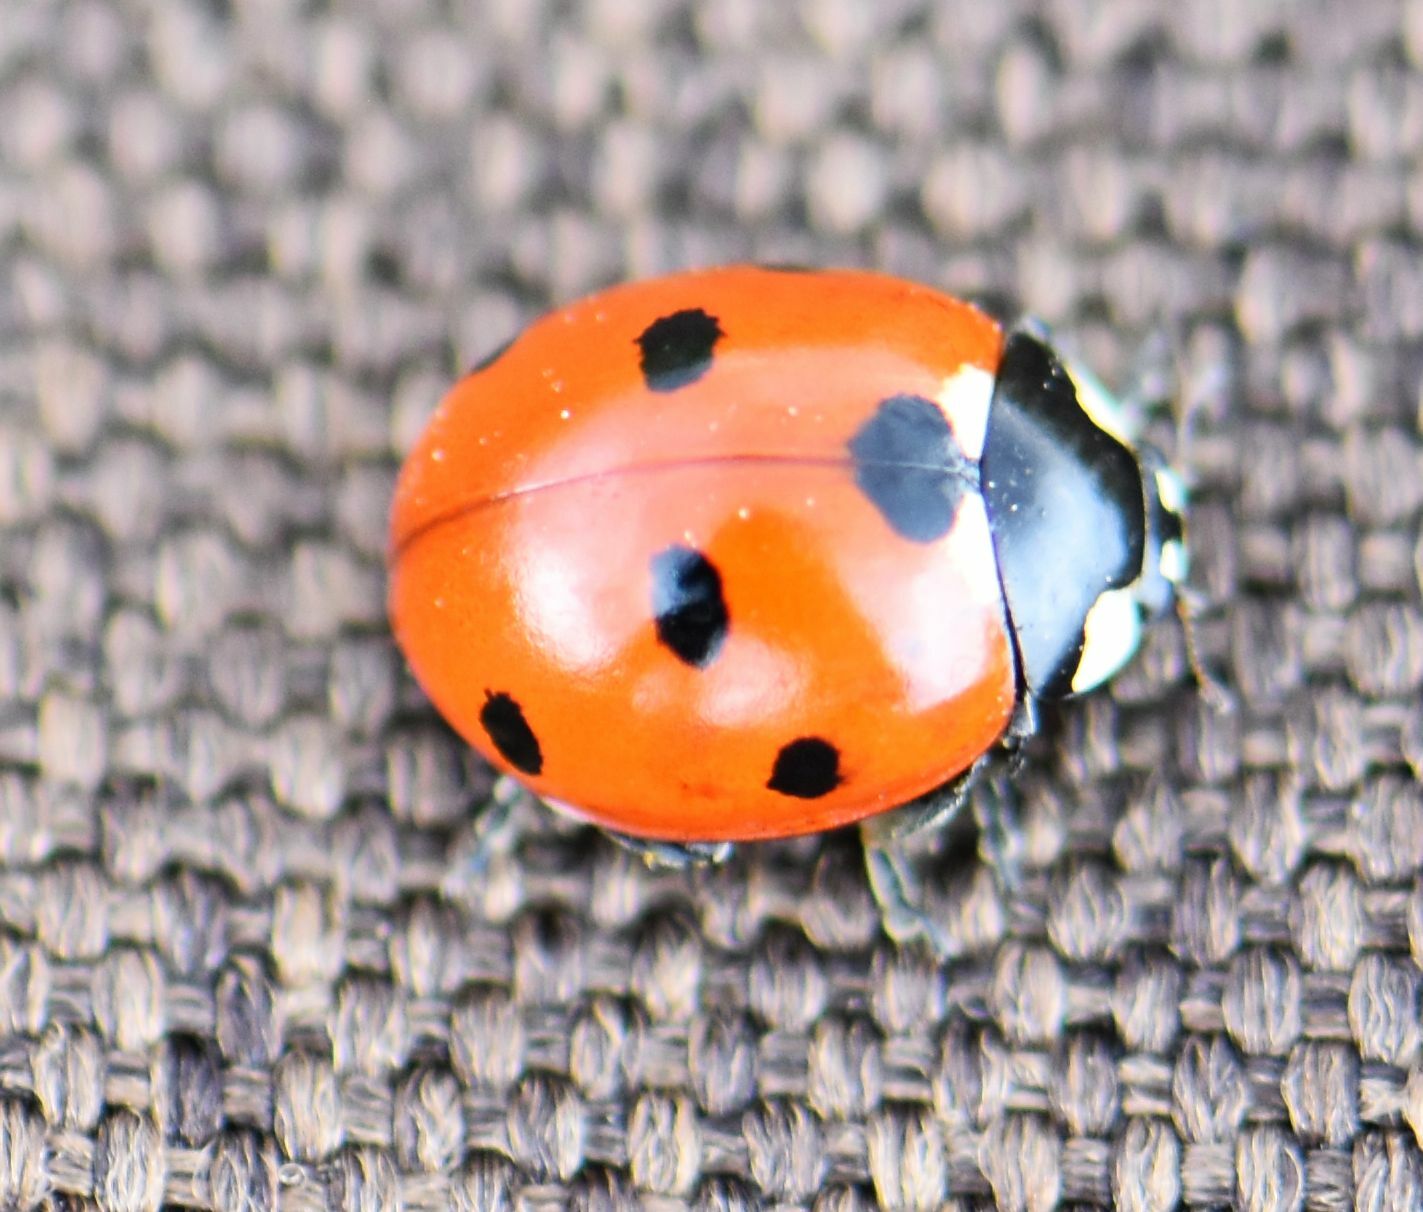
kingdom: Animalia
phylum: Arthropoda
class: Insecta
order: Coleoptera
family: Coccinellidae
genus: Coccinella
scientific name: Coccinella septempunctata
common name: Sevenspotted lady beetle
